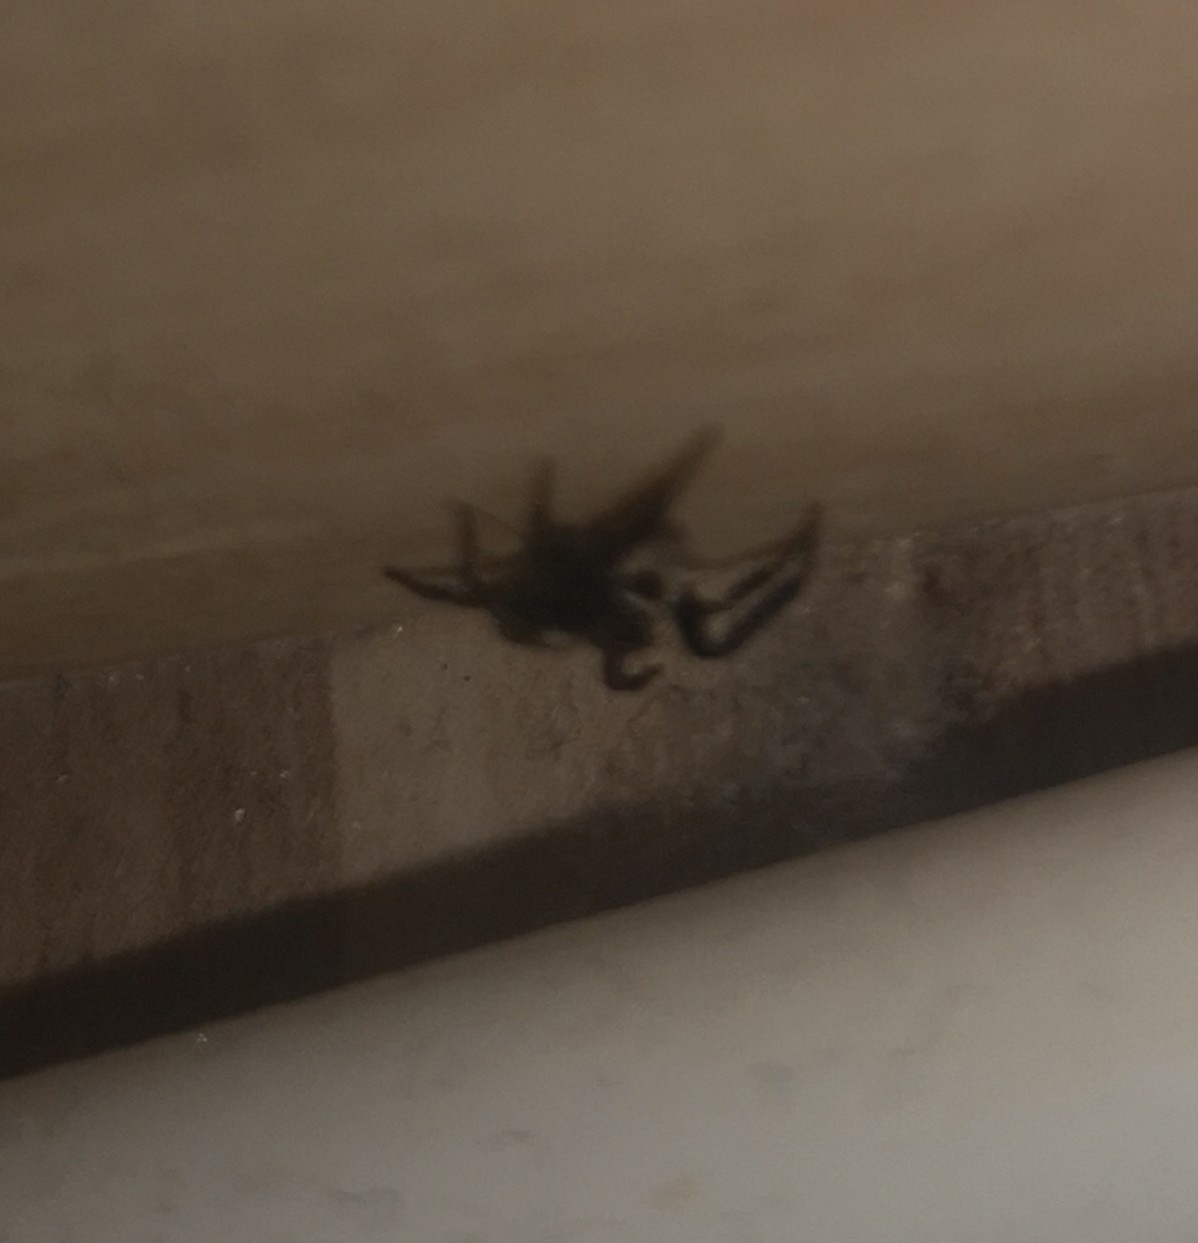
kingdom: Animalia
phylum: Arthropoda
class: Arachnida
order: Araneae
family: Salticidae
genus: Pseudeuophrys
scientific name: Pseudeuophrys lanigera
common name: Jumping spider
